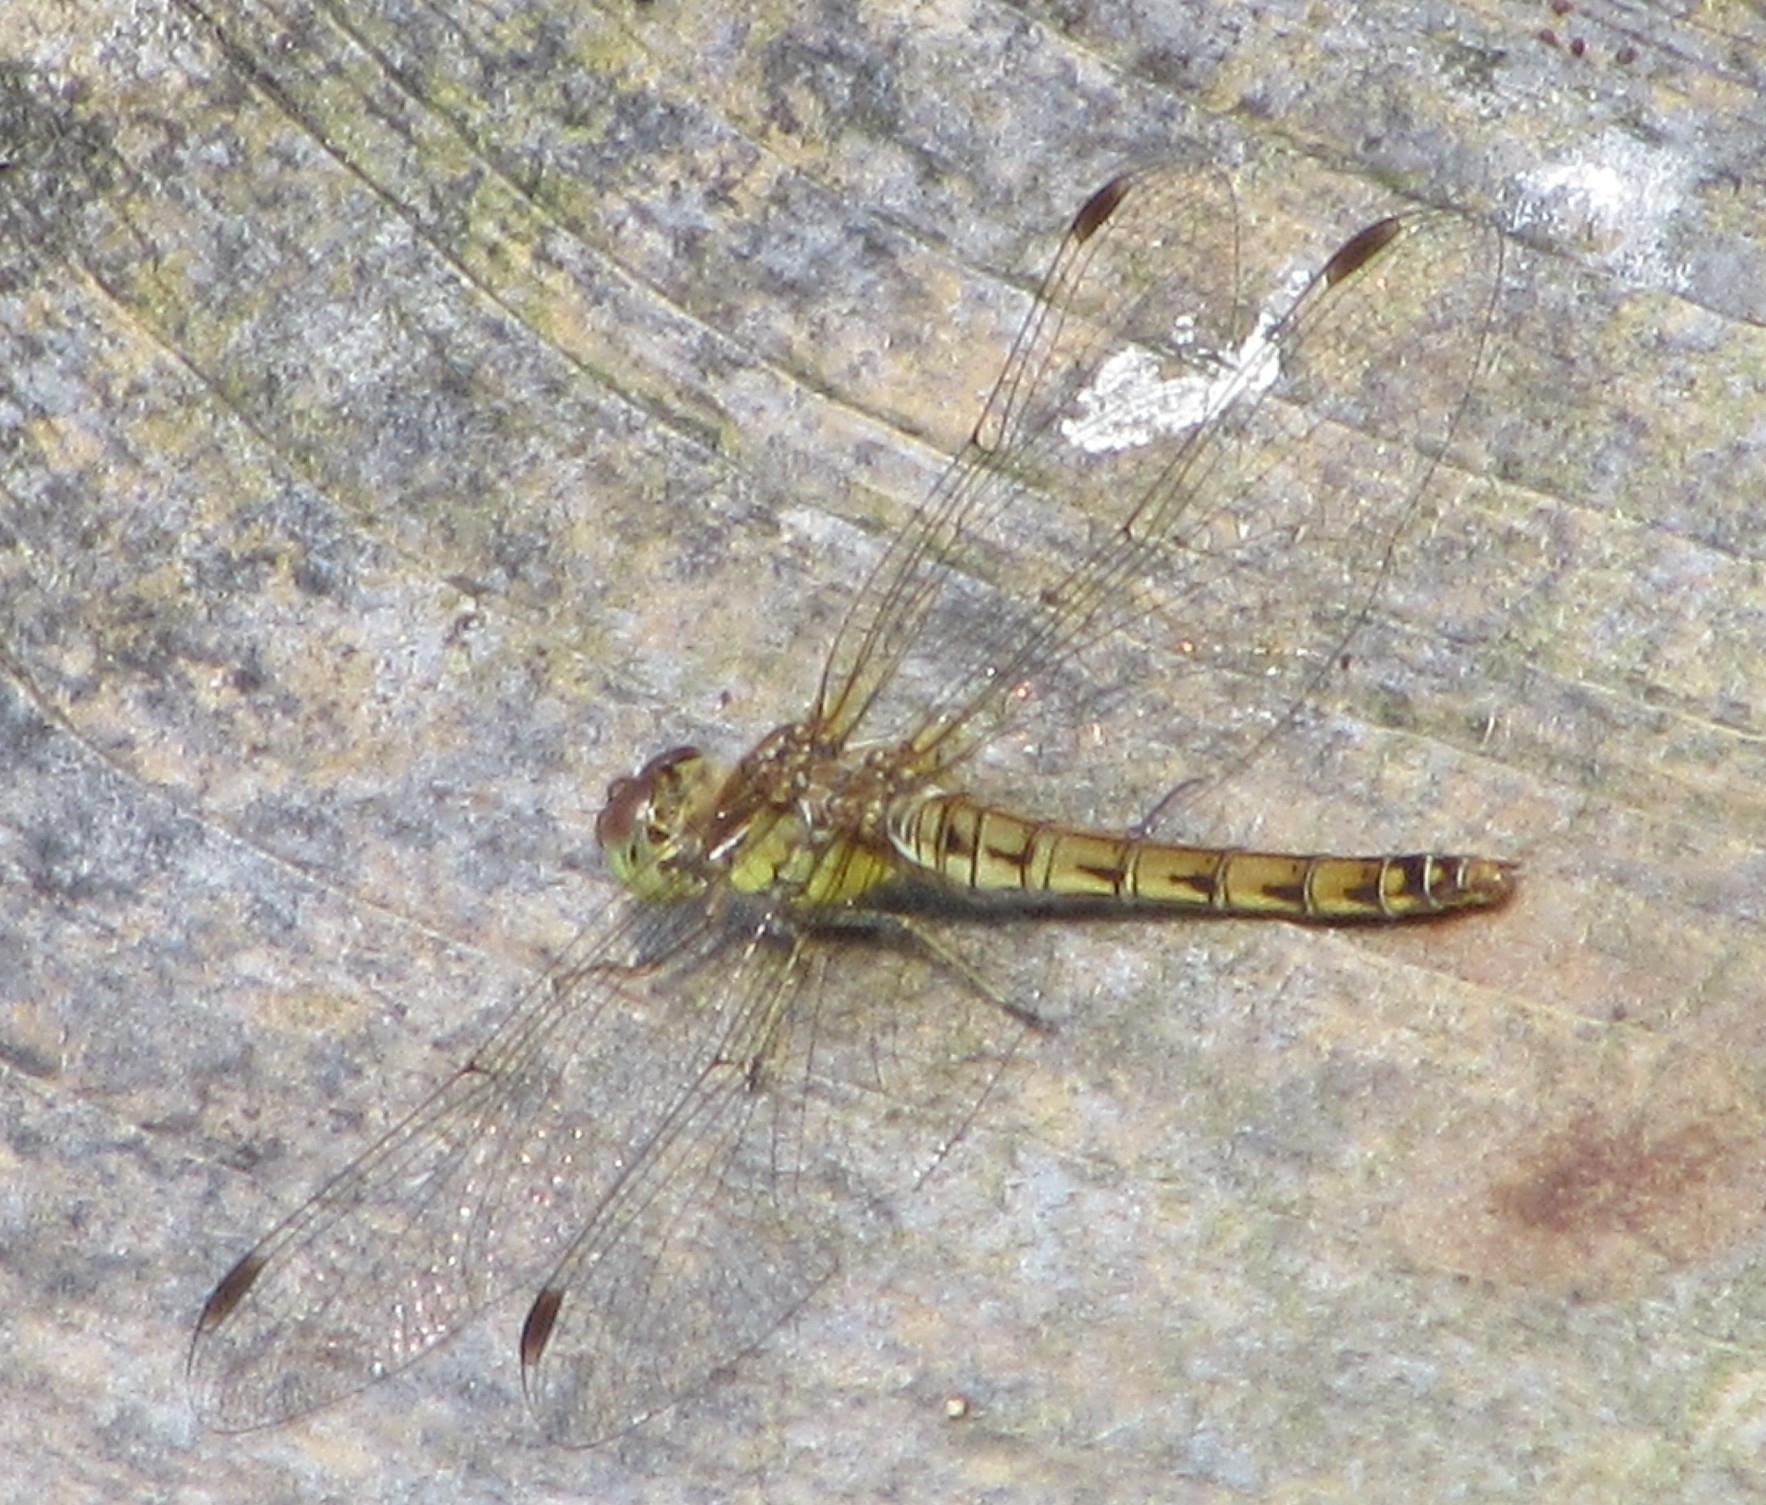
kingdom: Animalia
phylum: Arthropoda
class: Insecta
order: Odonata
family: Libellulidae
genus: Sympetrum
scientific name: Sympetrum striolatum
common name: Common darter
